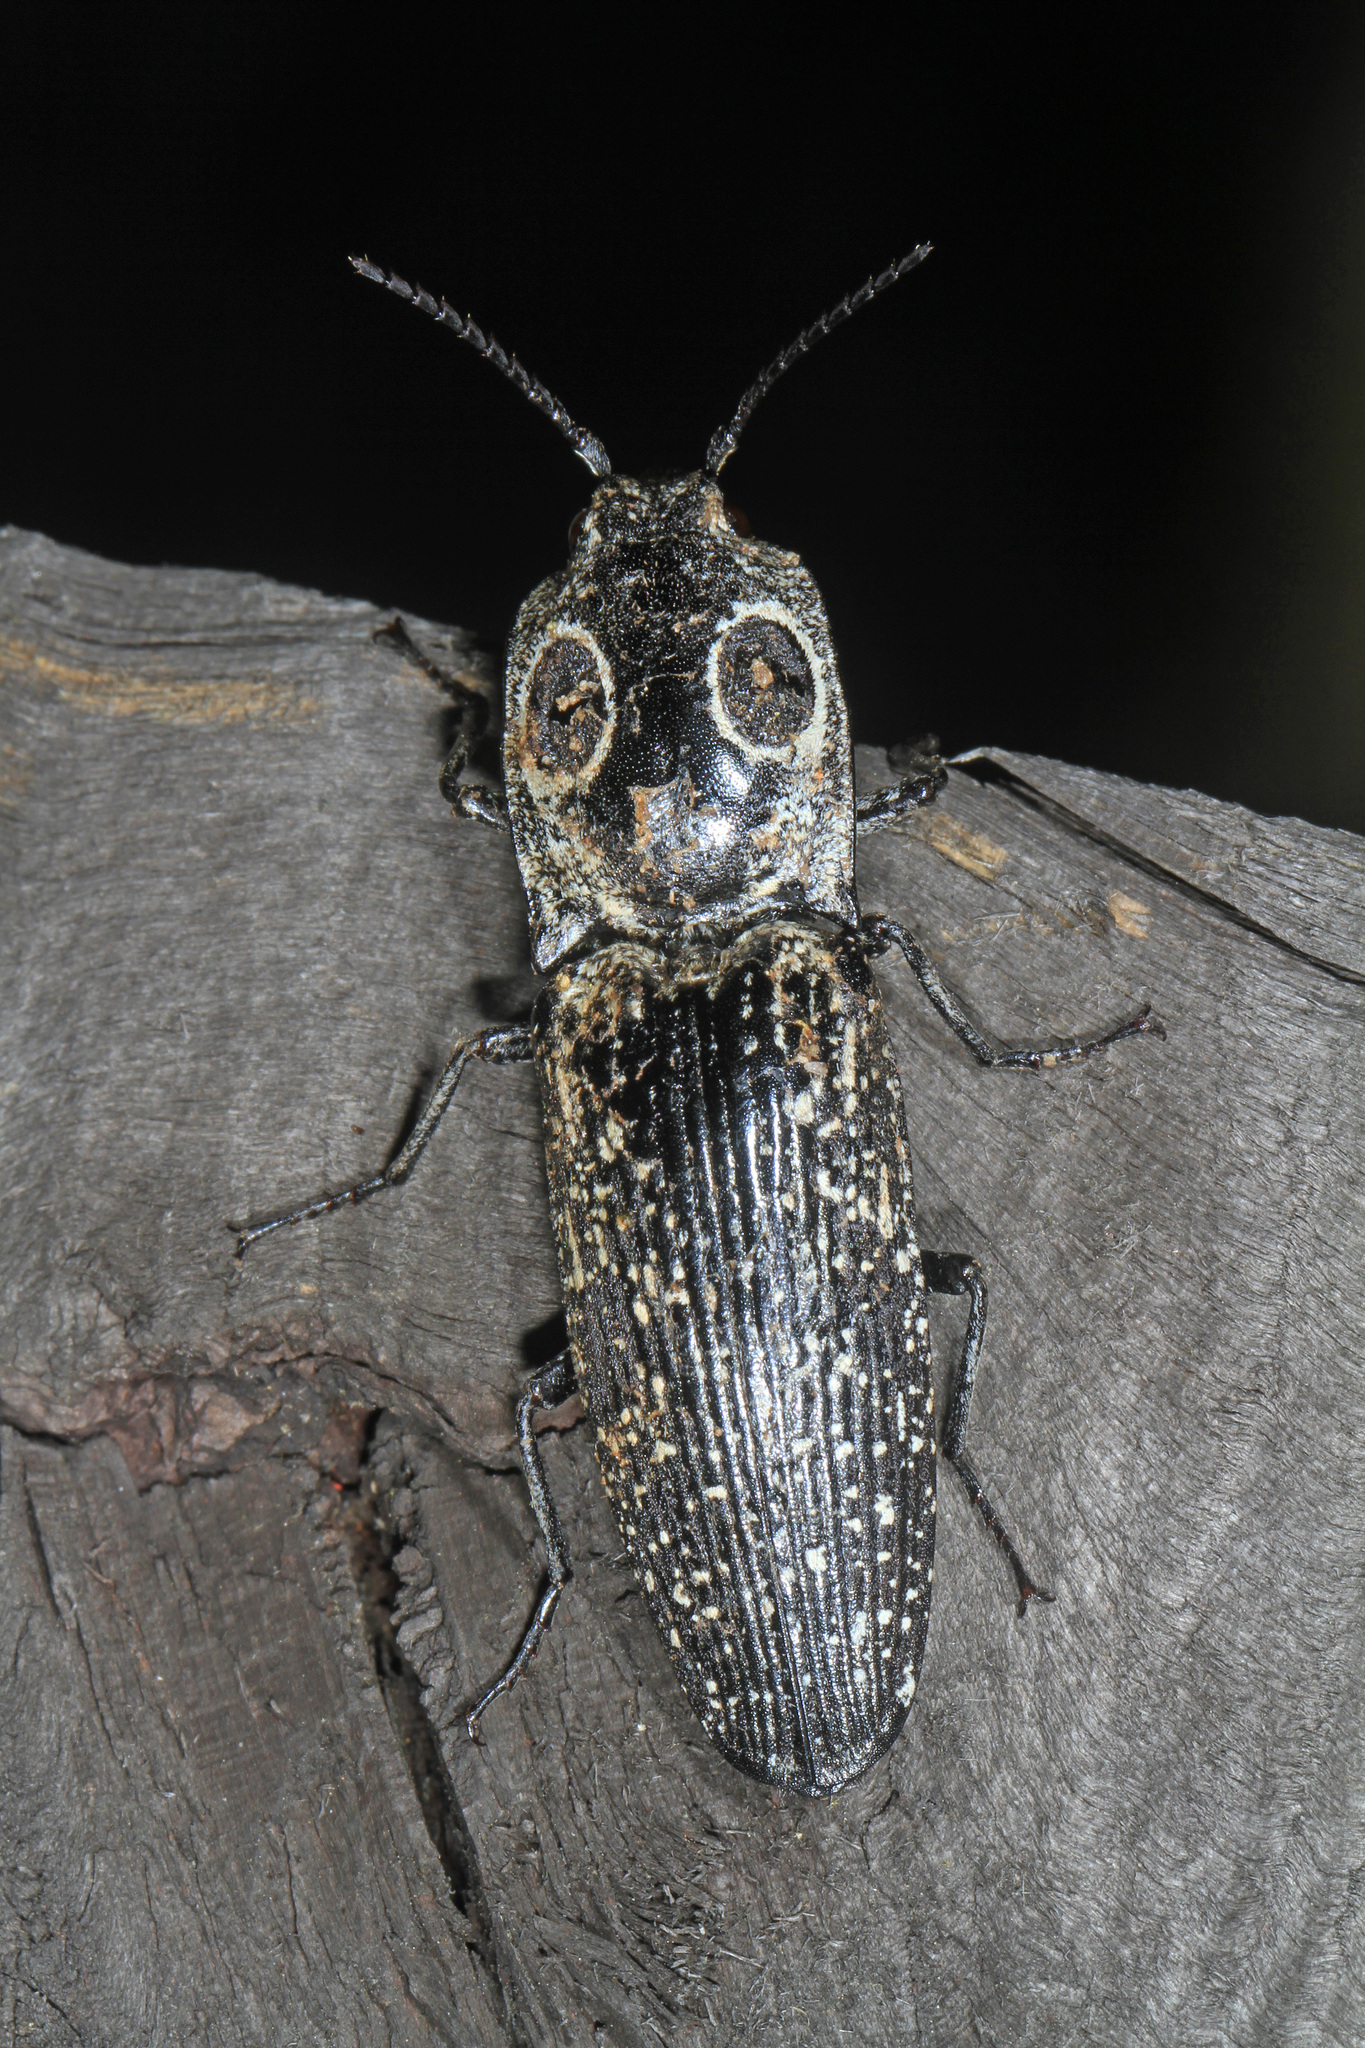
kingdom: Animalia
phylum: Arthropoda
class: Insecta
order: Coleoptera
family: Elateridae
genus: Alaus
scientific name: Alaus oculatus
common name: Eastern eyed click beetle
